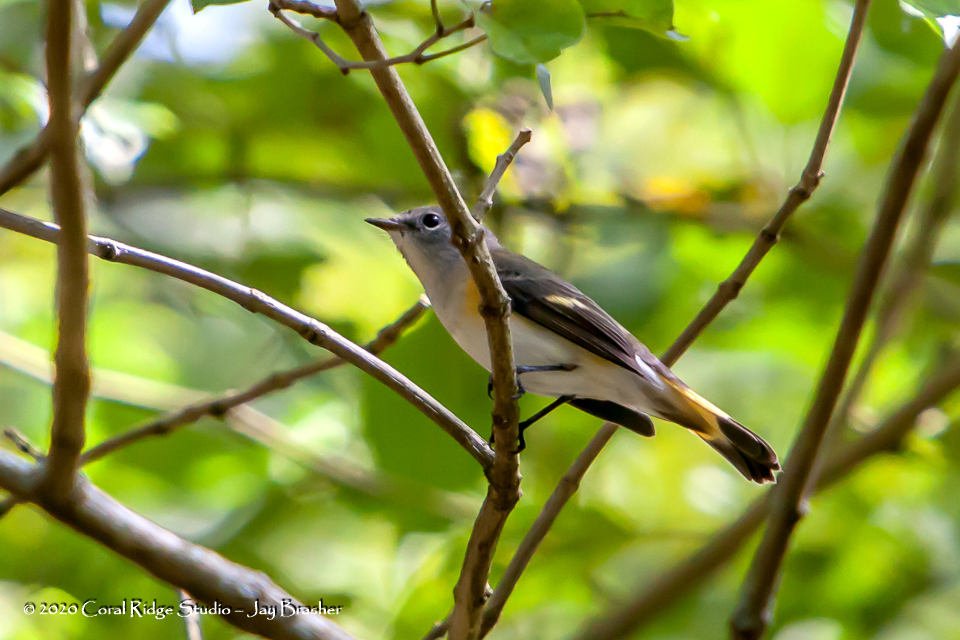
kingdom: Animalia
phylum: Chordata
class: Aves
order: Passeriformes
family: Parulidae
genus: Setophaga
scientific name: Setophaga ruticilla
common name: American redstart
